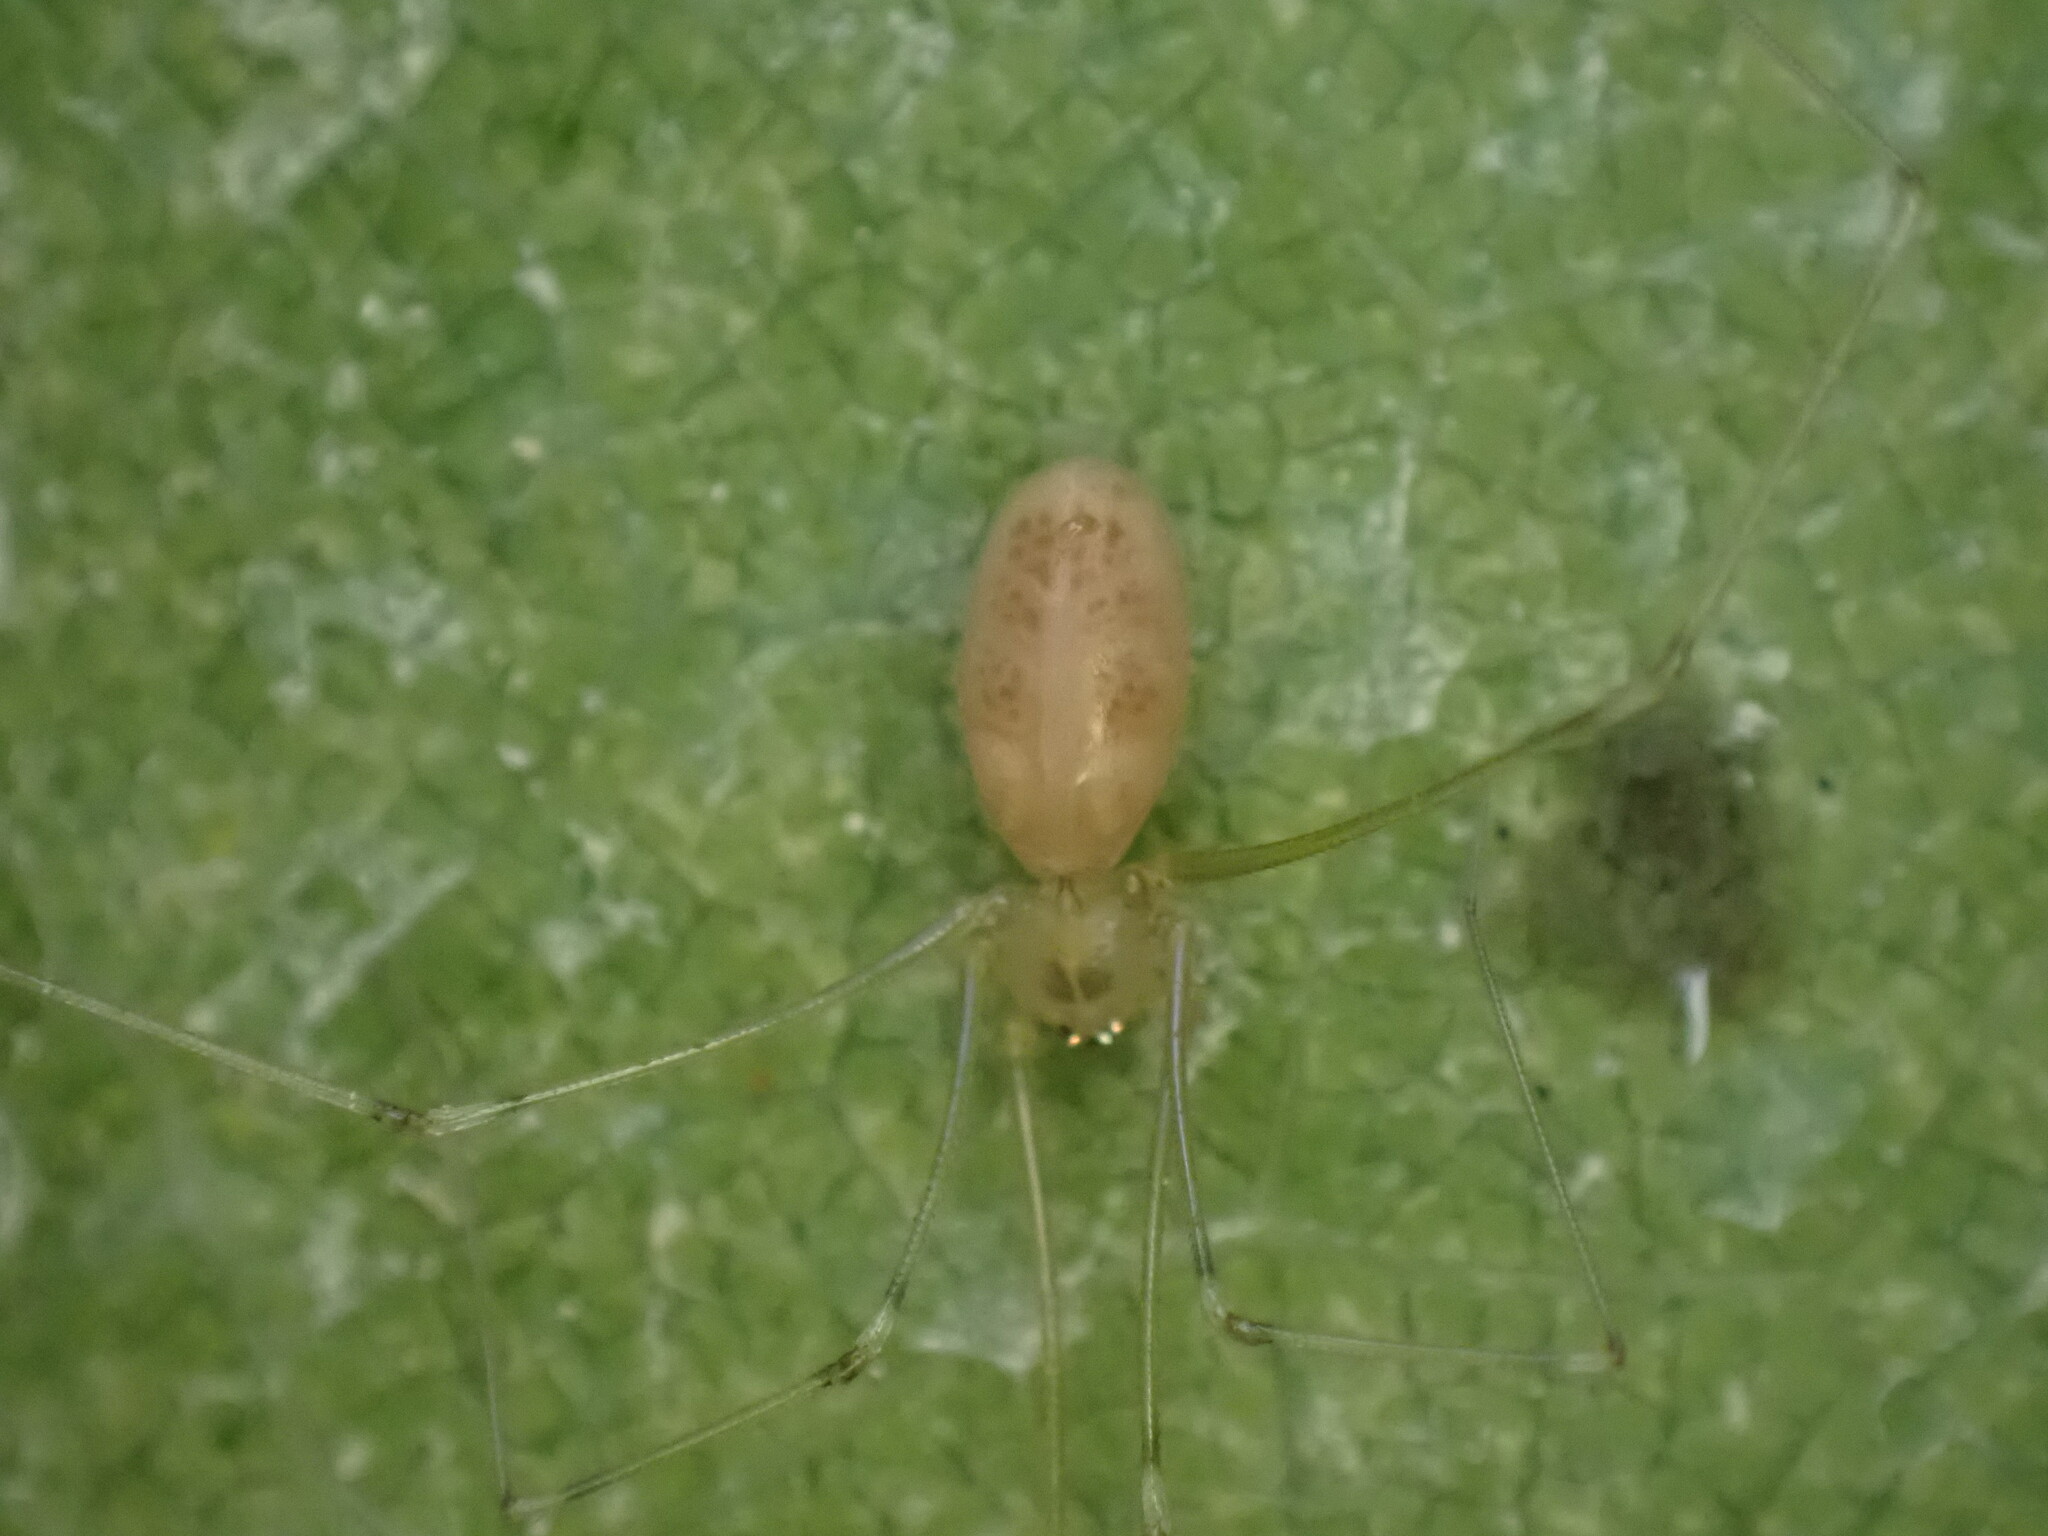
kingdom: Animalia
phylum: Arthropoda
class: Arachnida
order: Araneae
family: Pholcidae
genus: Pholcus
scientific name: Pholcus phalangioides
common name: Longbodied cellar spider
